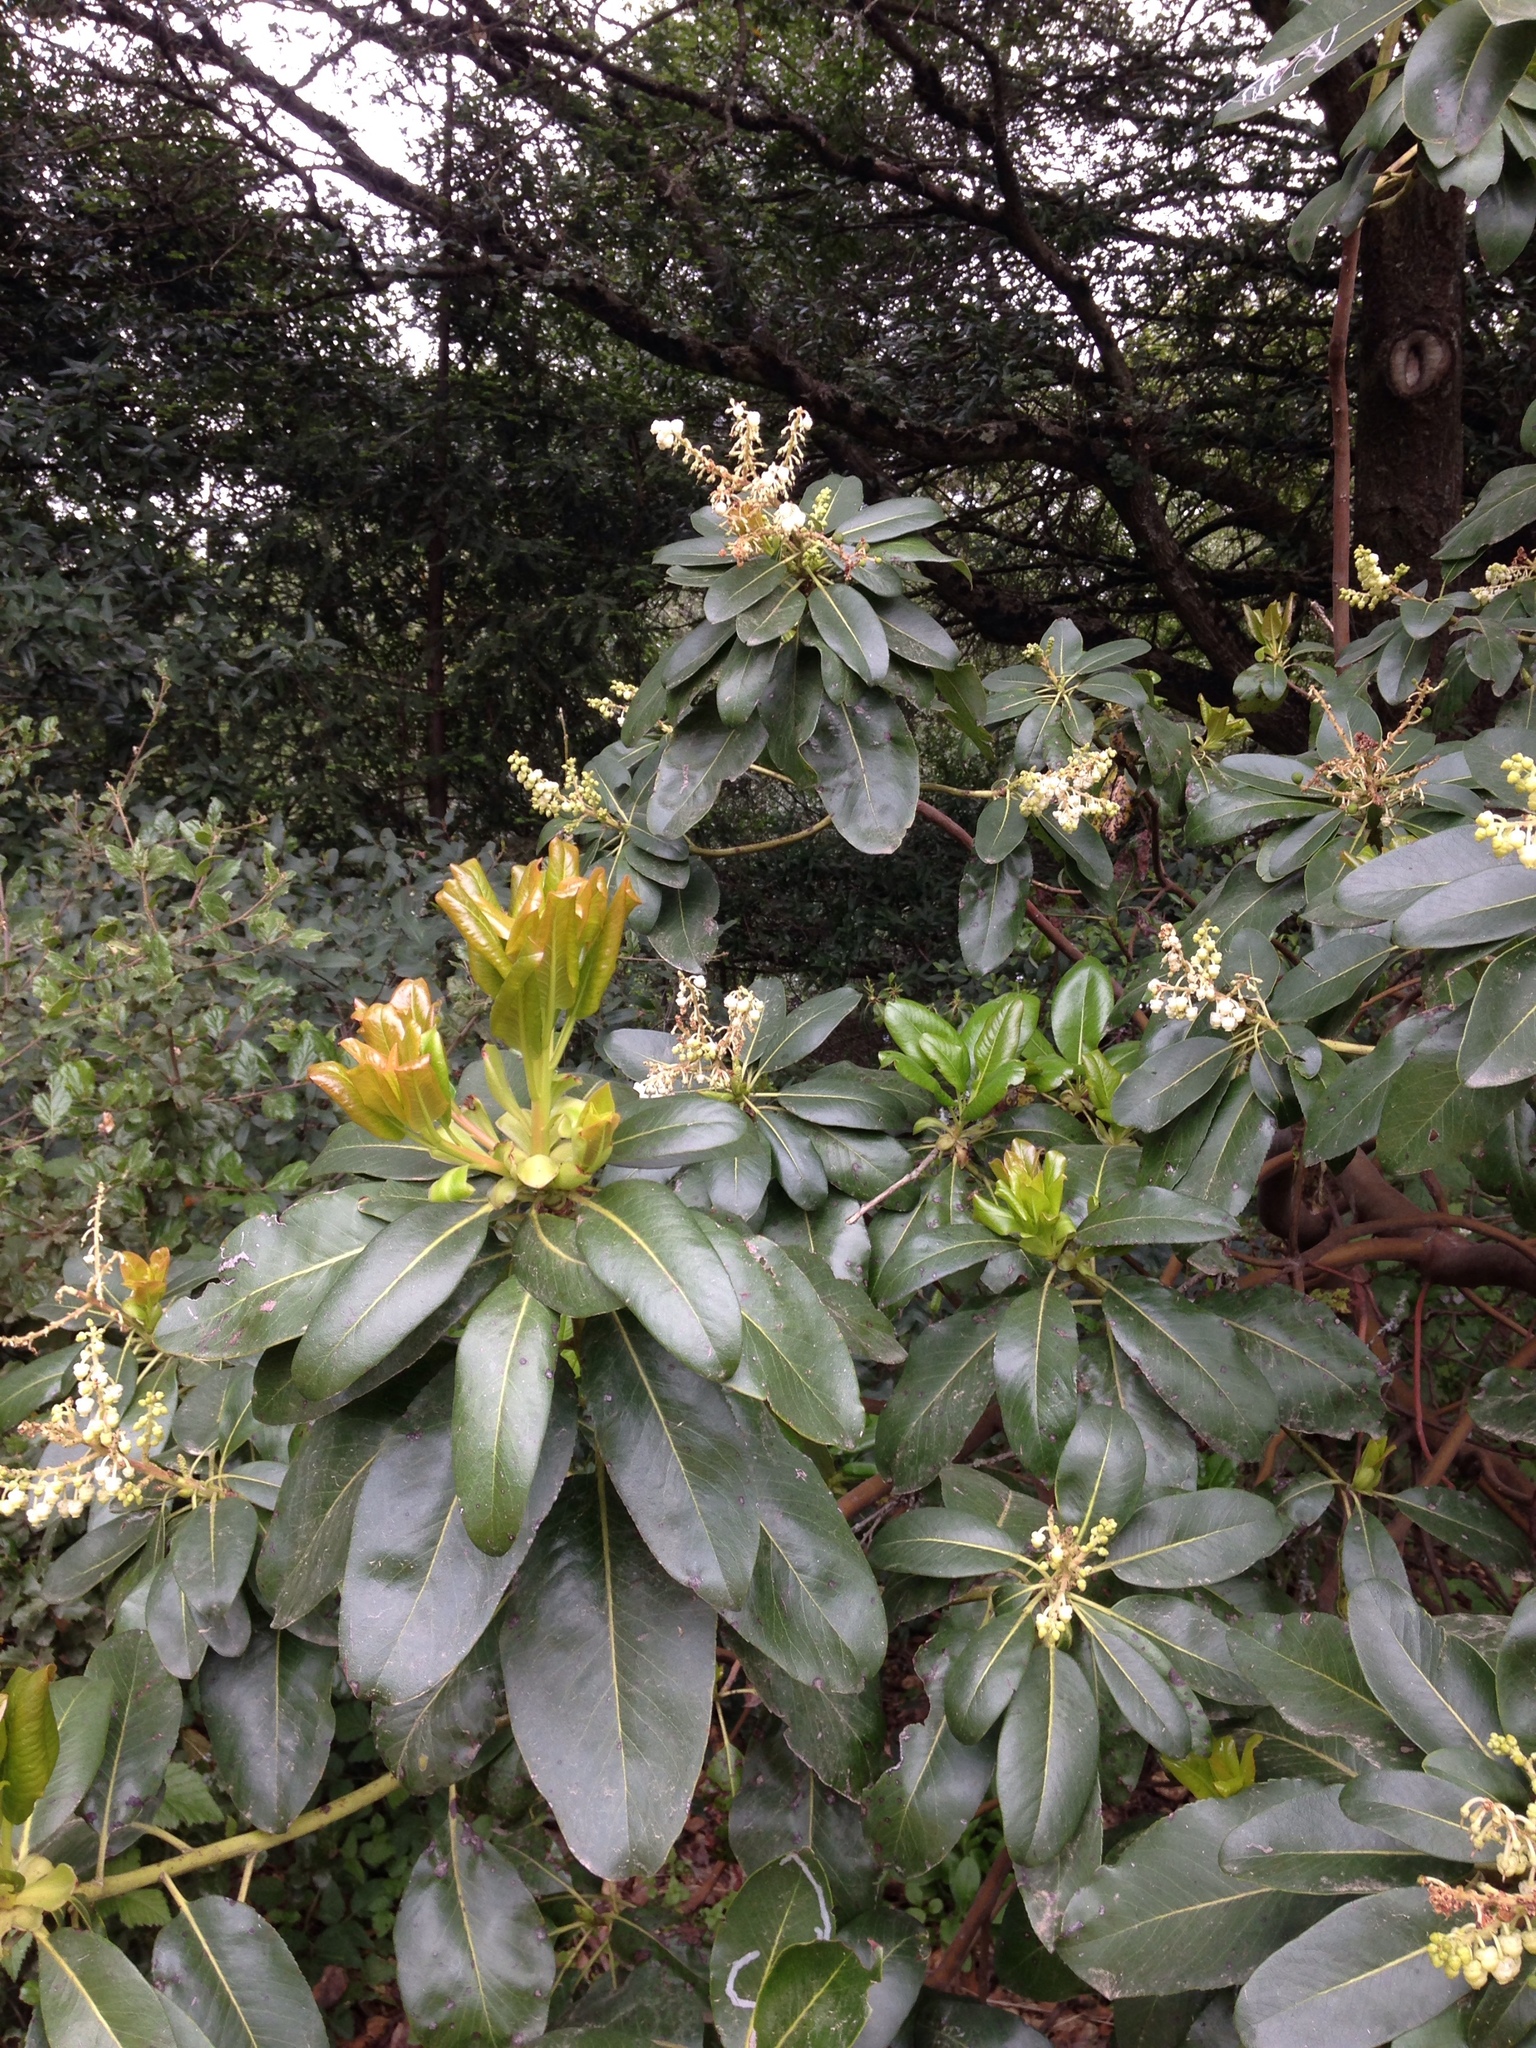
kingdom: Plantae
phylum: Tracheophyta
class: Magnoliopsida
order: Ericales
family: Ericaceae
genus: Arbutus
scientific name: Arbutus menziesii
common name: Pacific madrone
